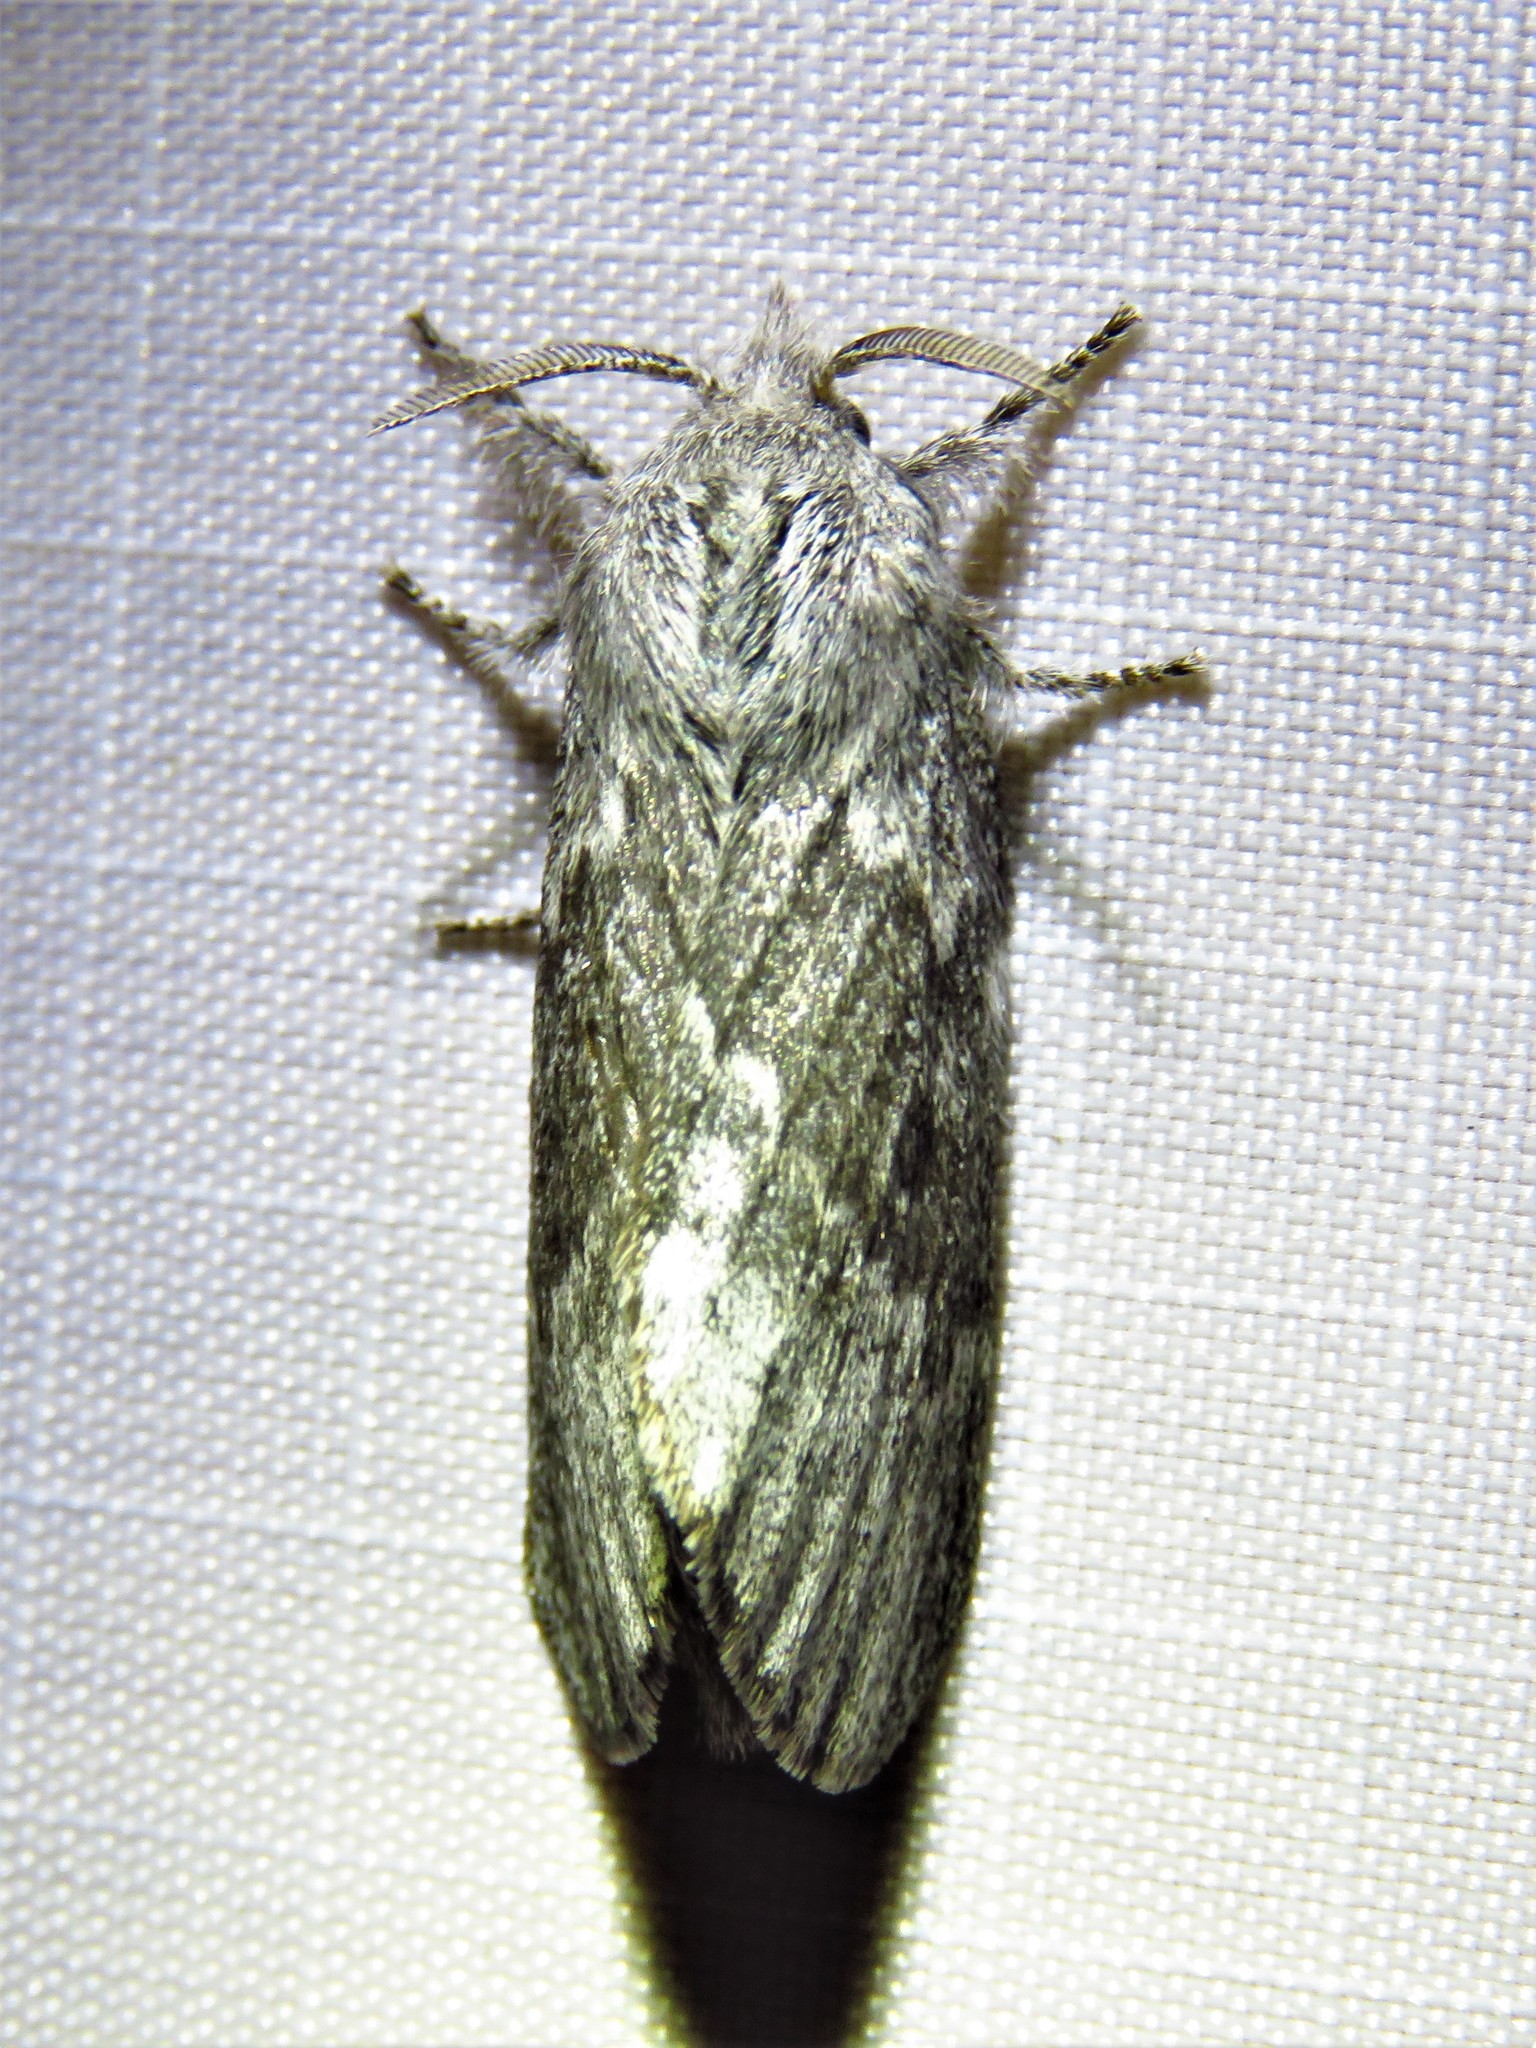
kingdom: Animalia
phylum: Arthropoda
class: Insecta
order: Lepidoptera
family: Lasiocampidae
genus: Heteropacha
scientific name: Heteropacha rileyana
